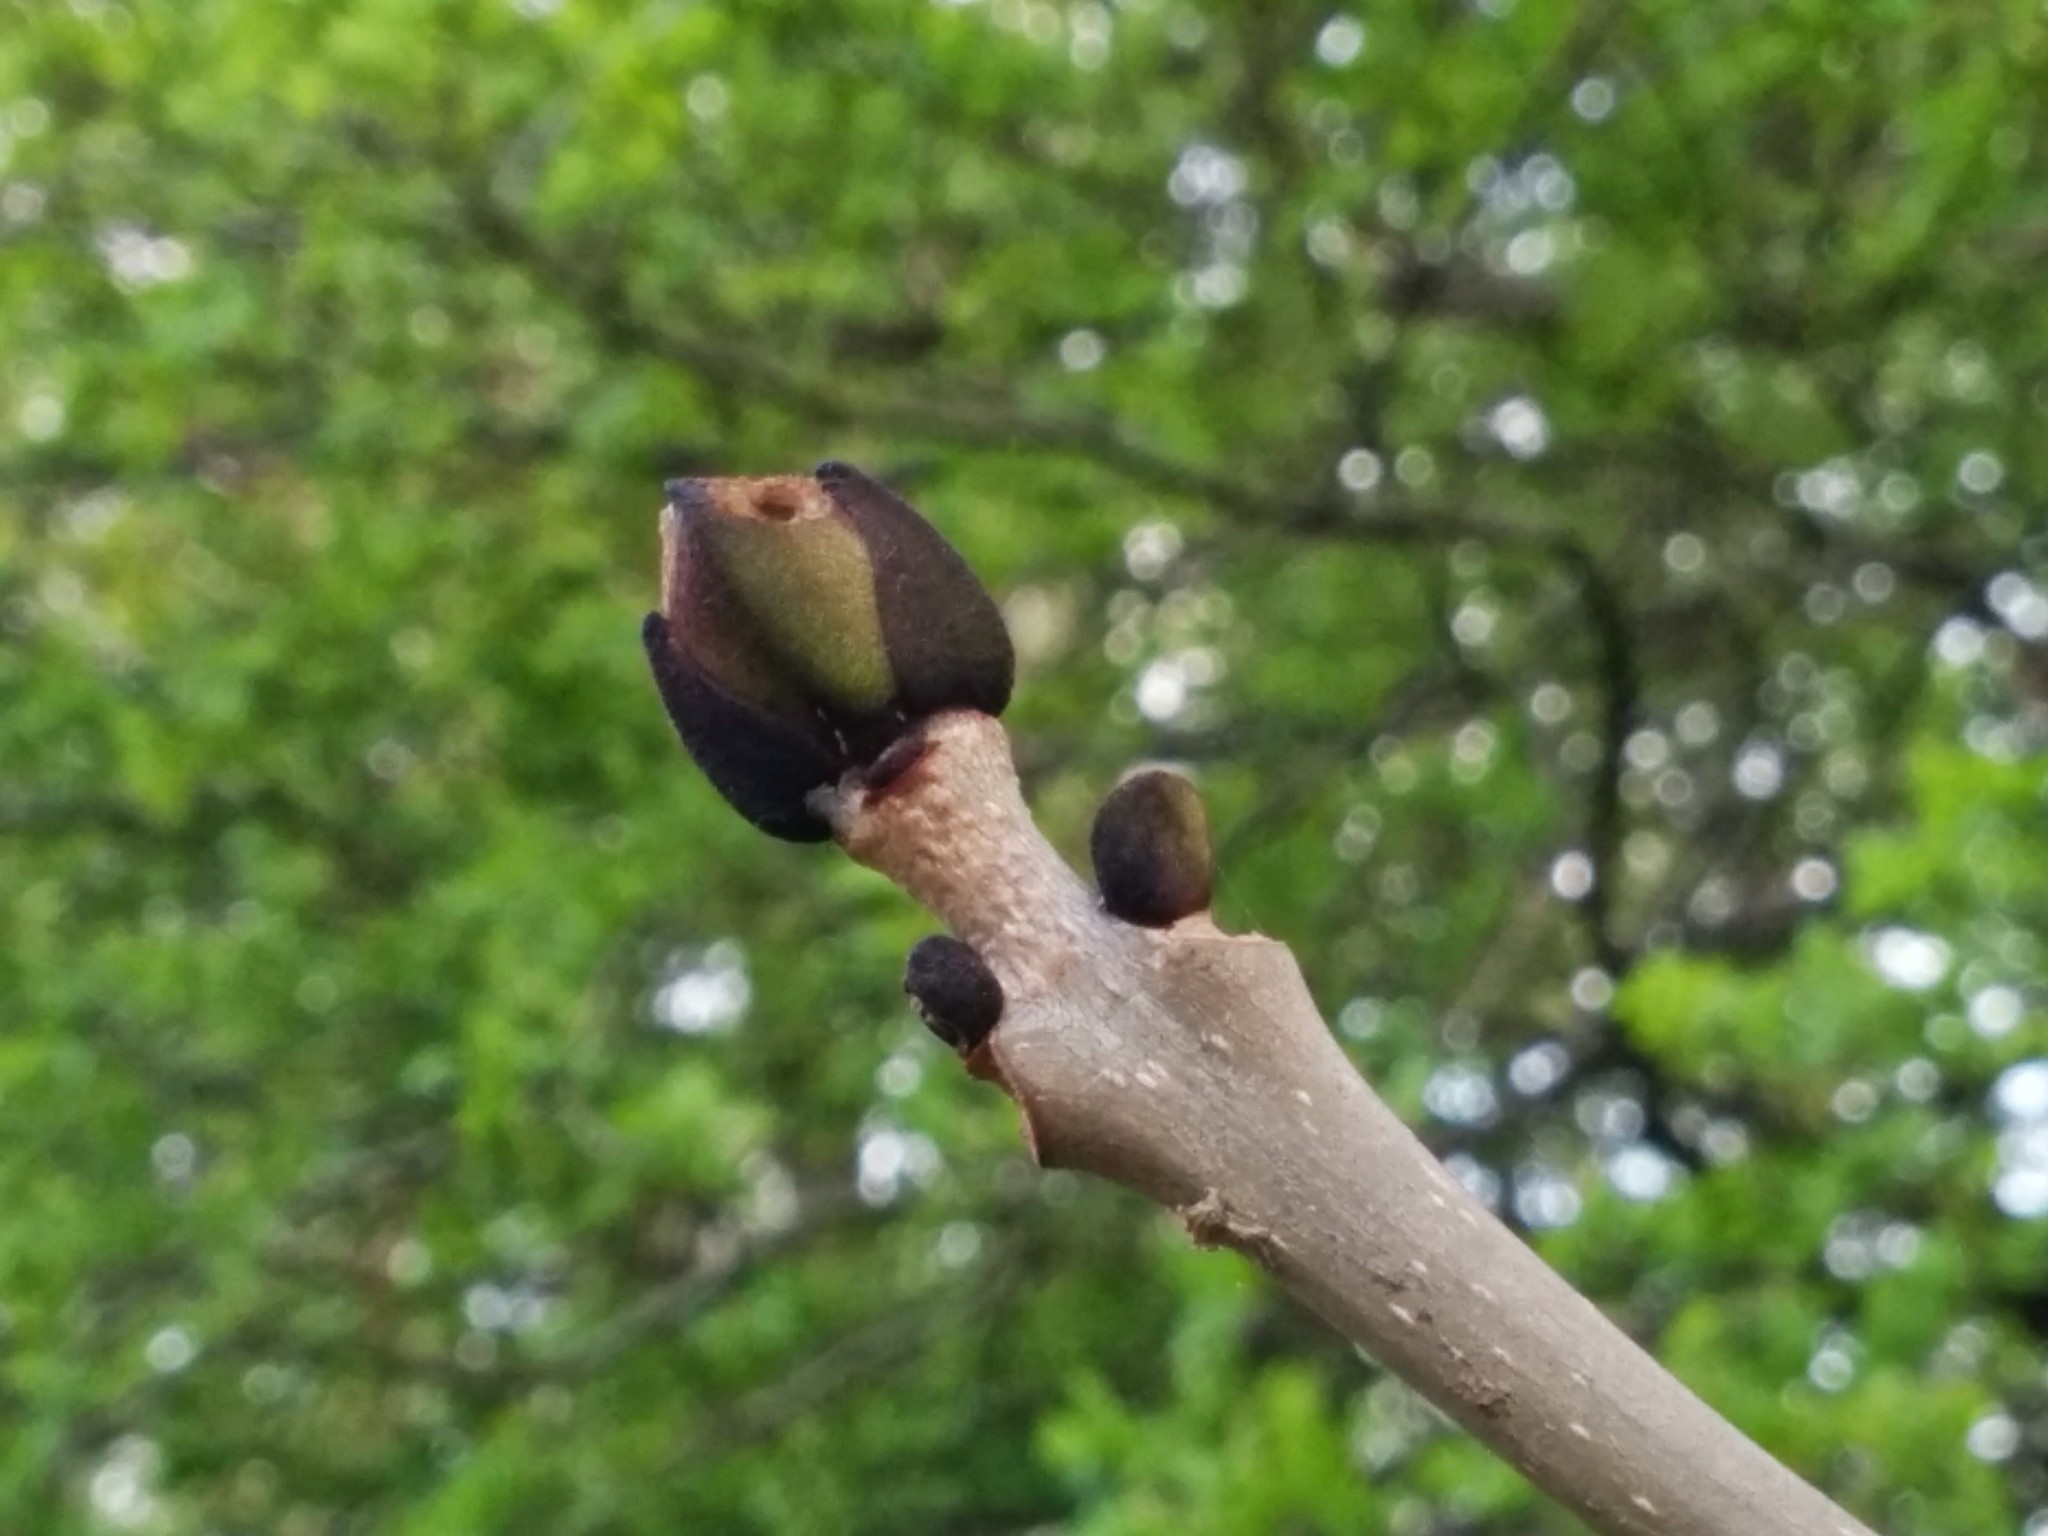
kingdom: Plantae
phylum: Tracheophyta
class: Magnoliopsida
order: Lamiales
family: Oleaceae
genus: Fraxinus
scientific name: Fraxinus excelsior
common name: European ash
